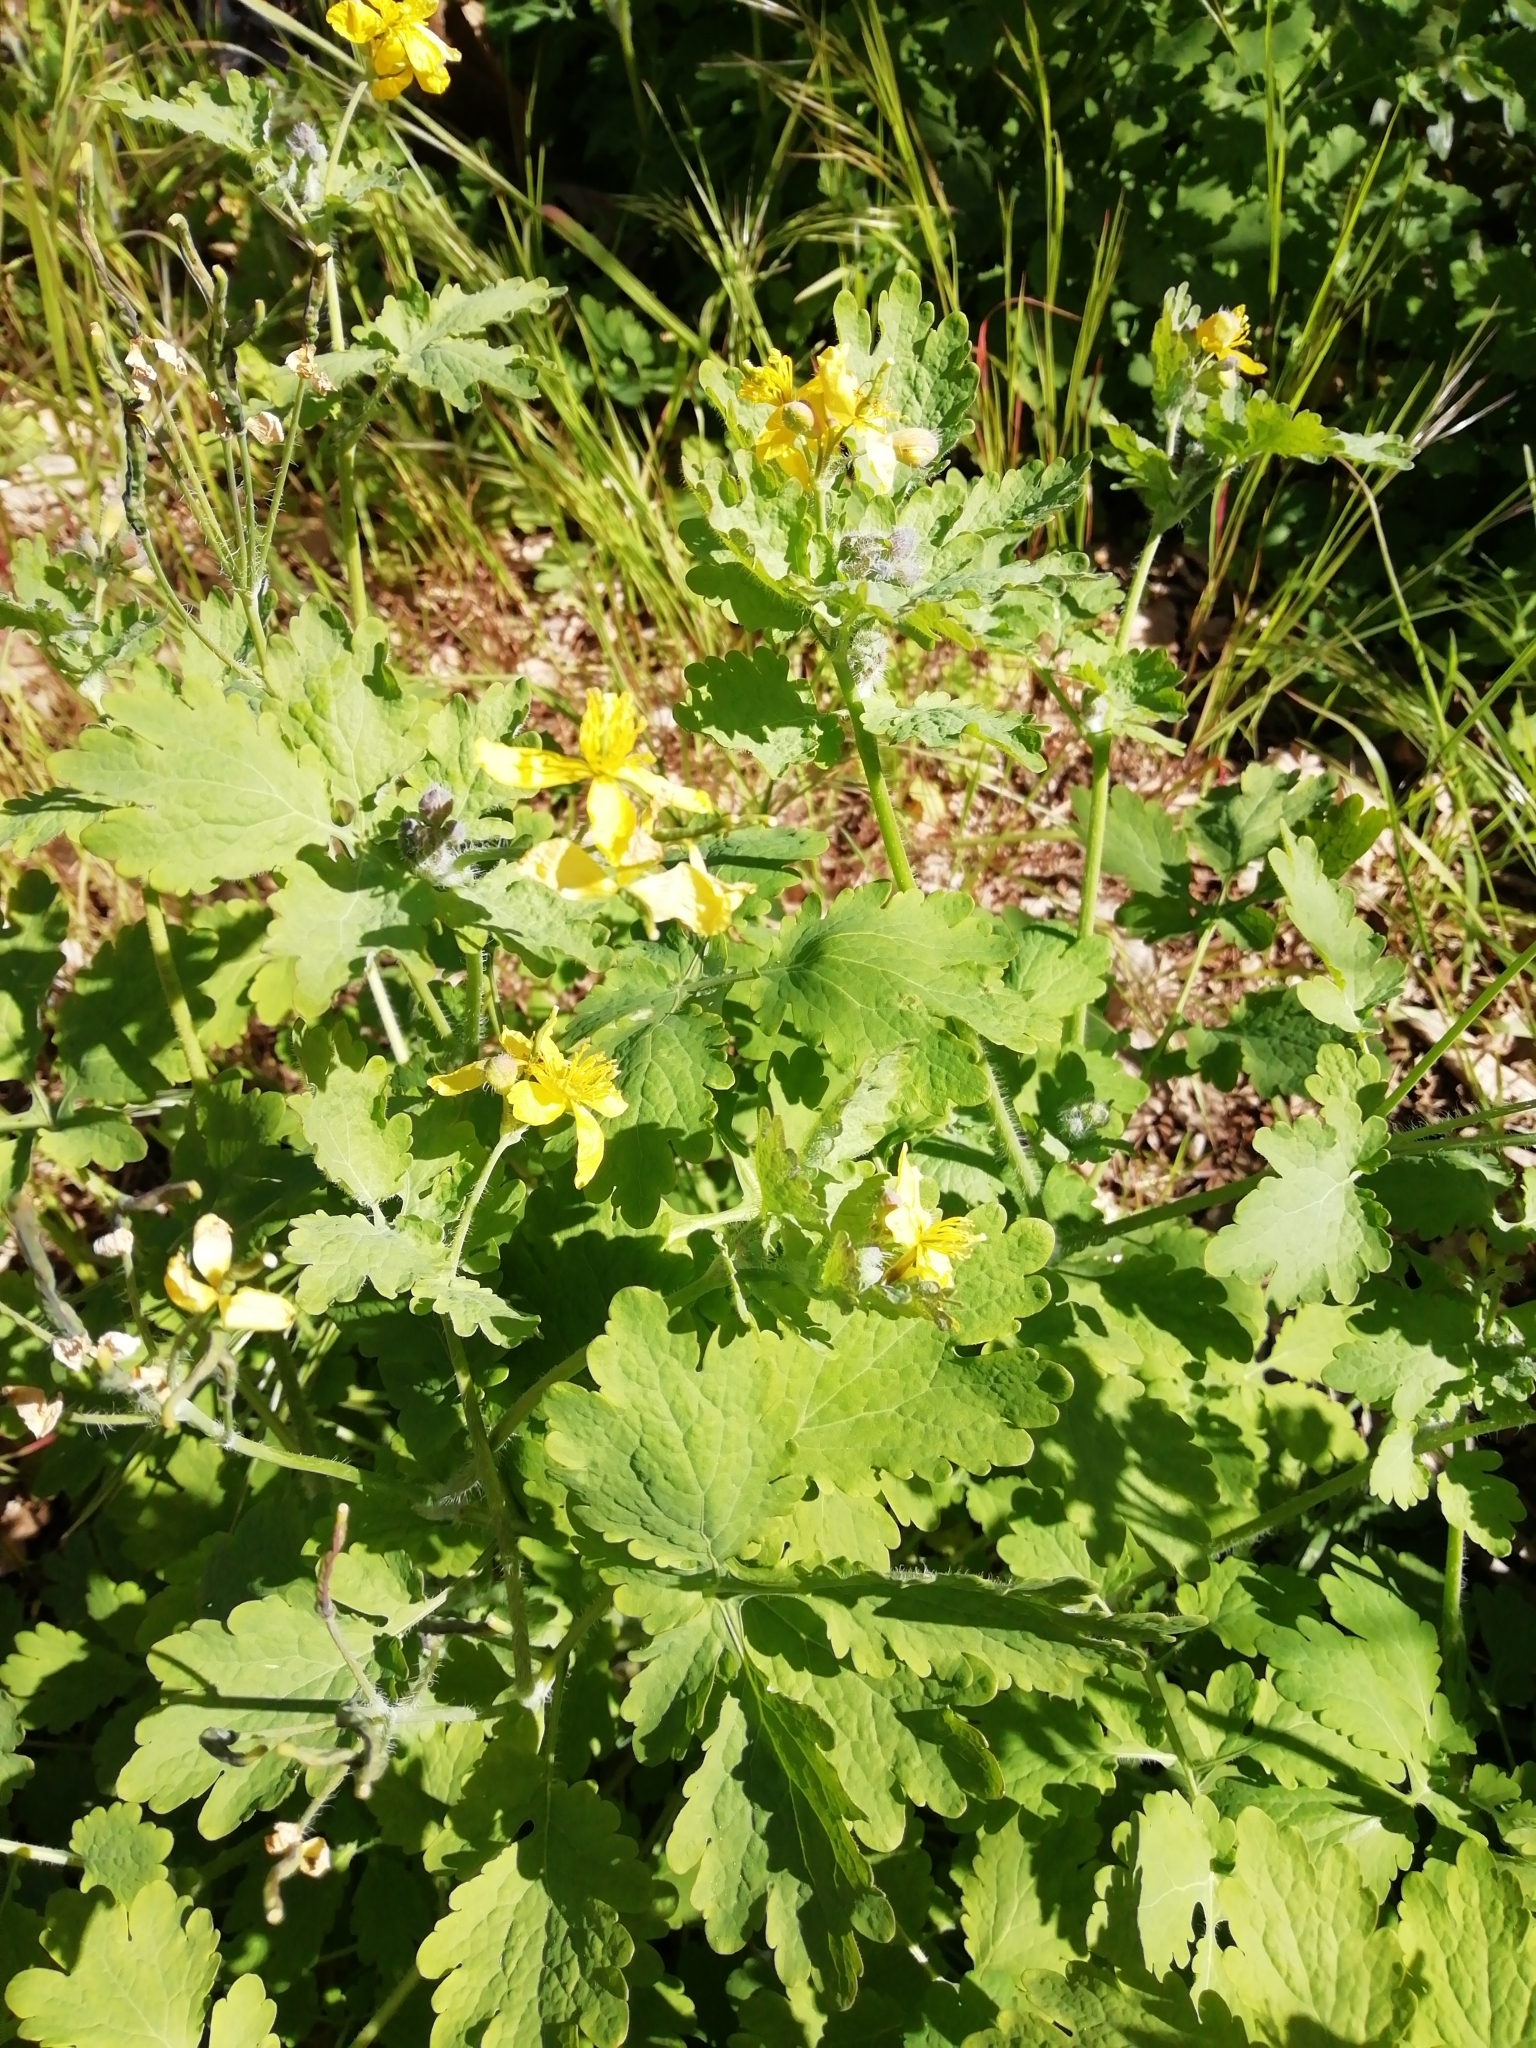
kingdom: Plantae
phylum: Tracheophyta
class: Magnoliopsida
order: Ranunculales
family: Papaveraceae
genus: Chelidonium
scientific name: Chelidonium majus
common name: Greater celandine
